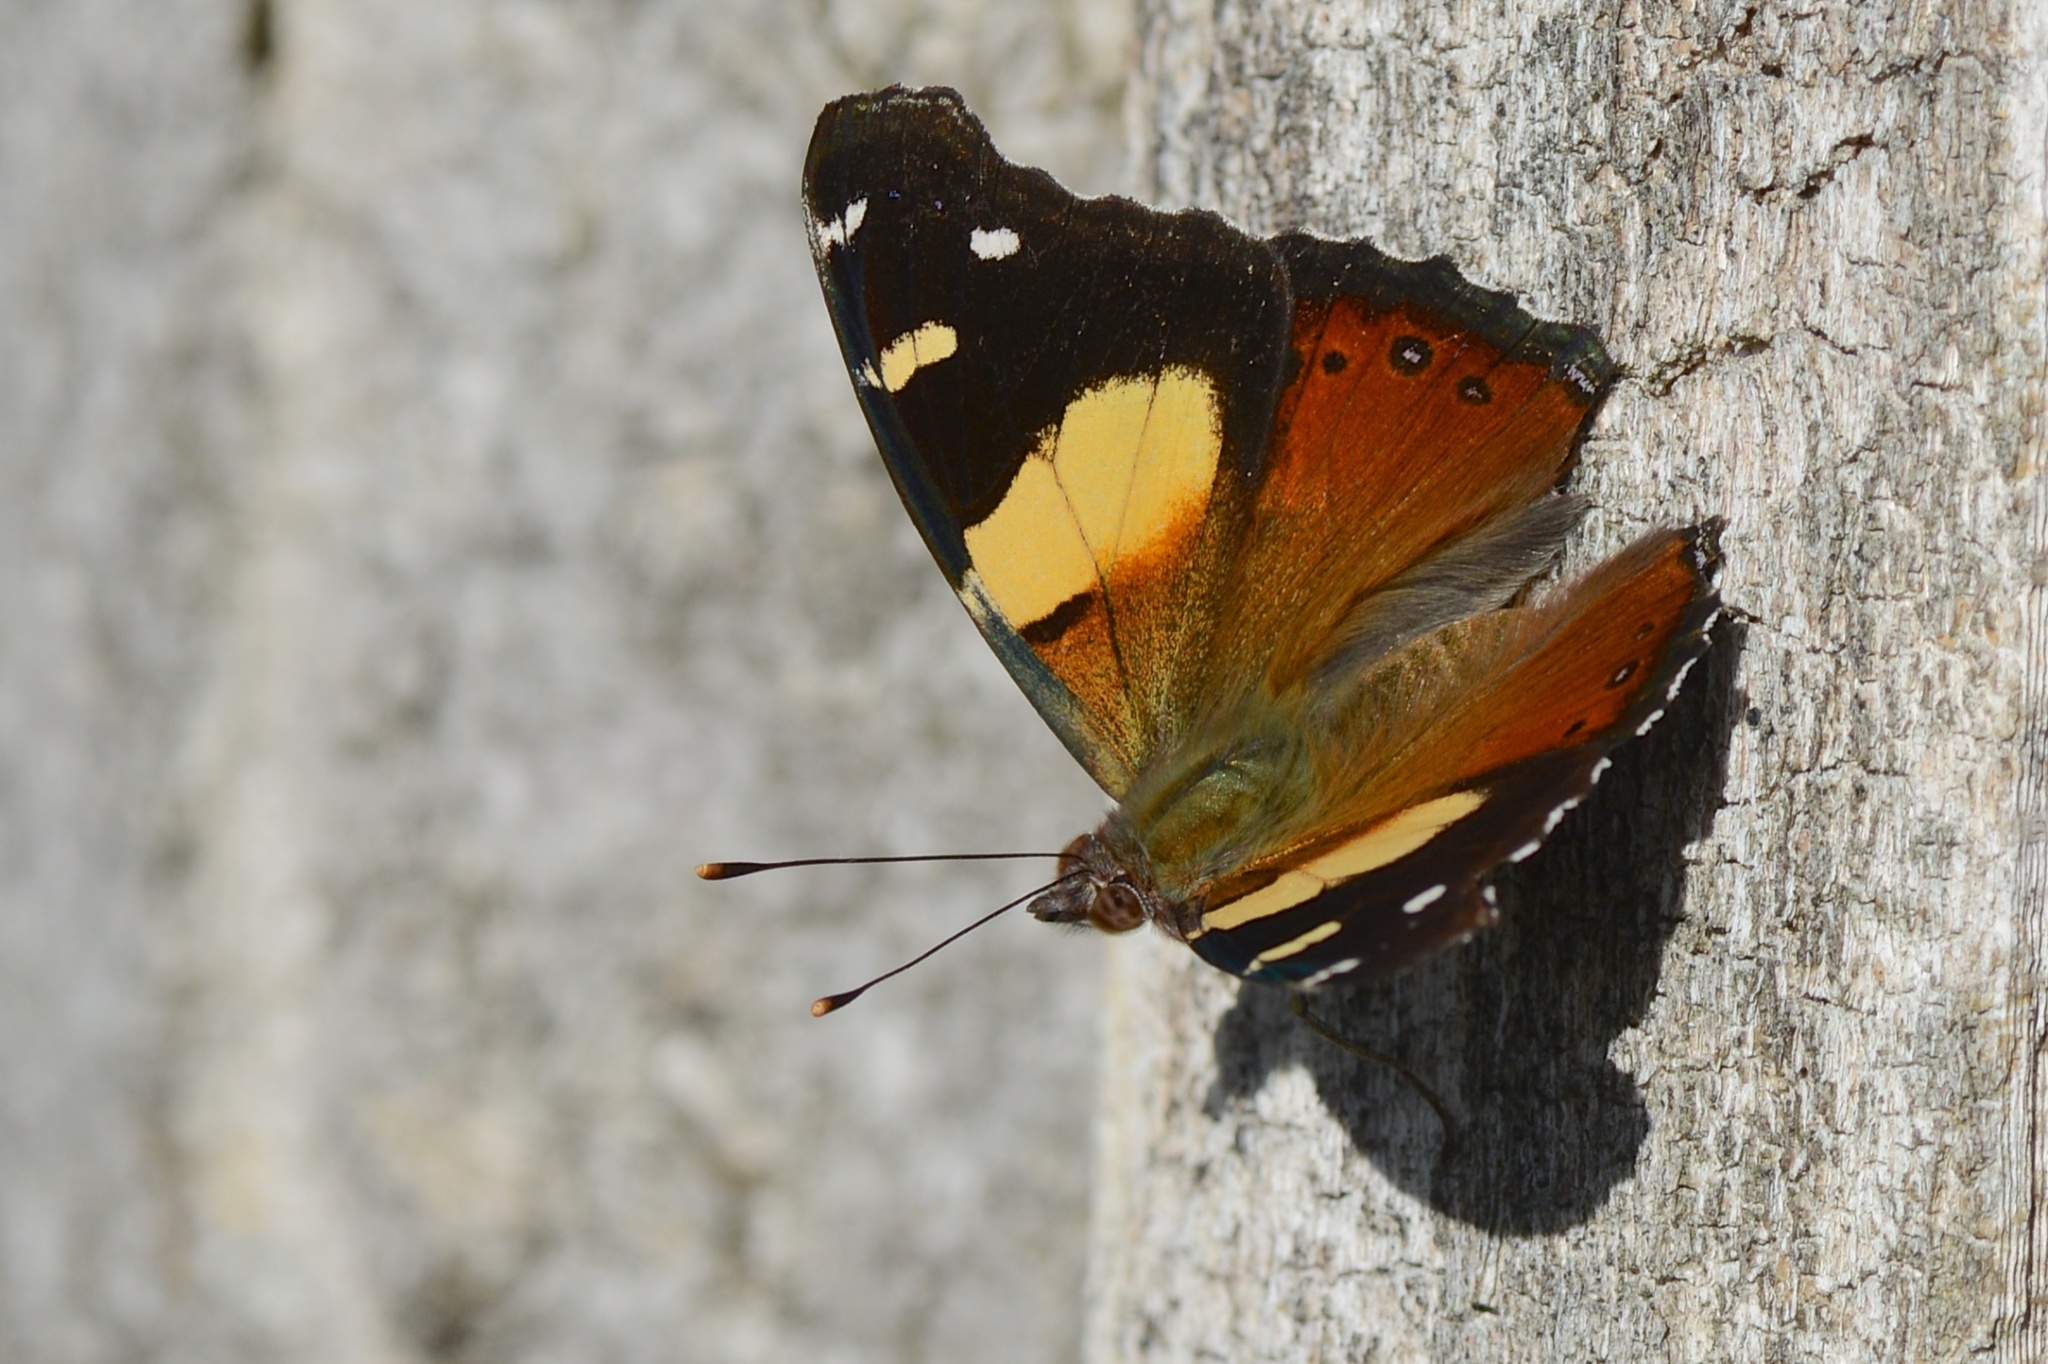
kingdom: Animalia
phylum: Arthropoda
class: Insecta
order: Lepidoptera
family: Nymphalidae
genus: Vanessa
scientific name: Vanessa itea
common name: Yellow admiral
